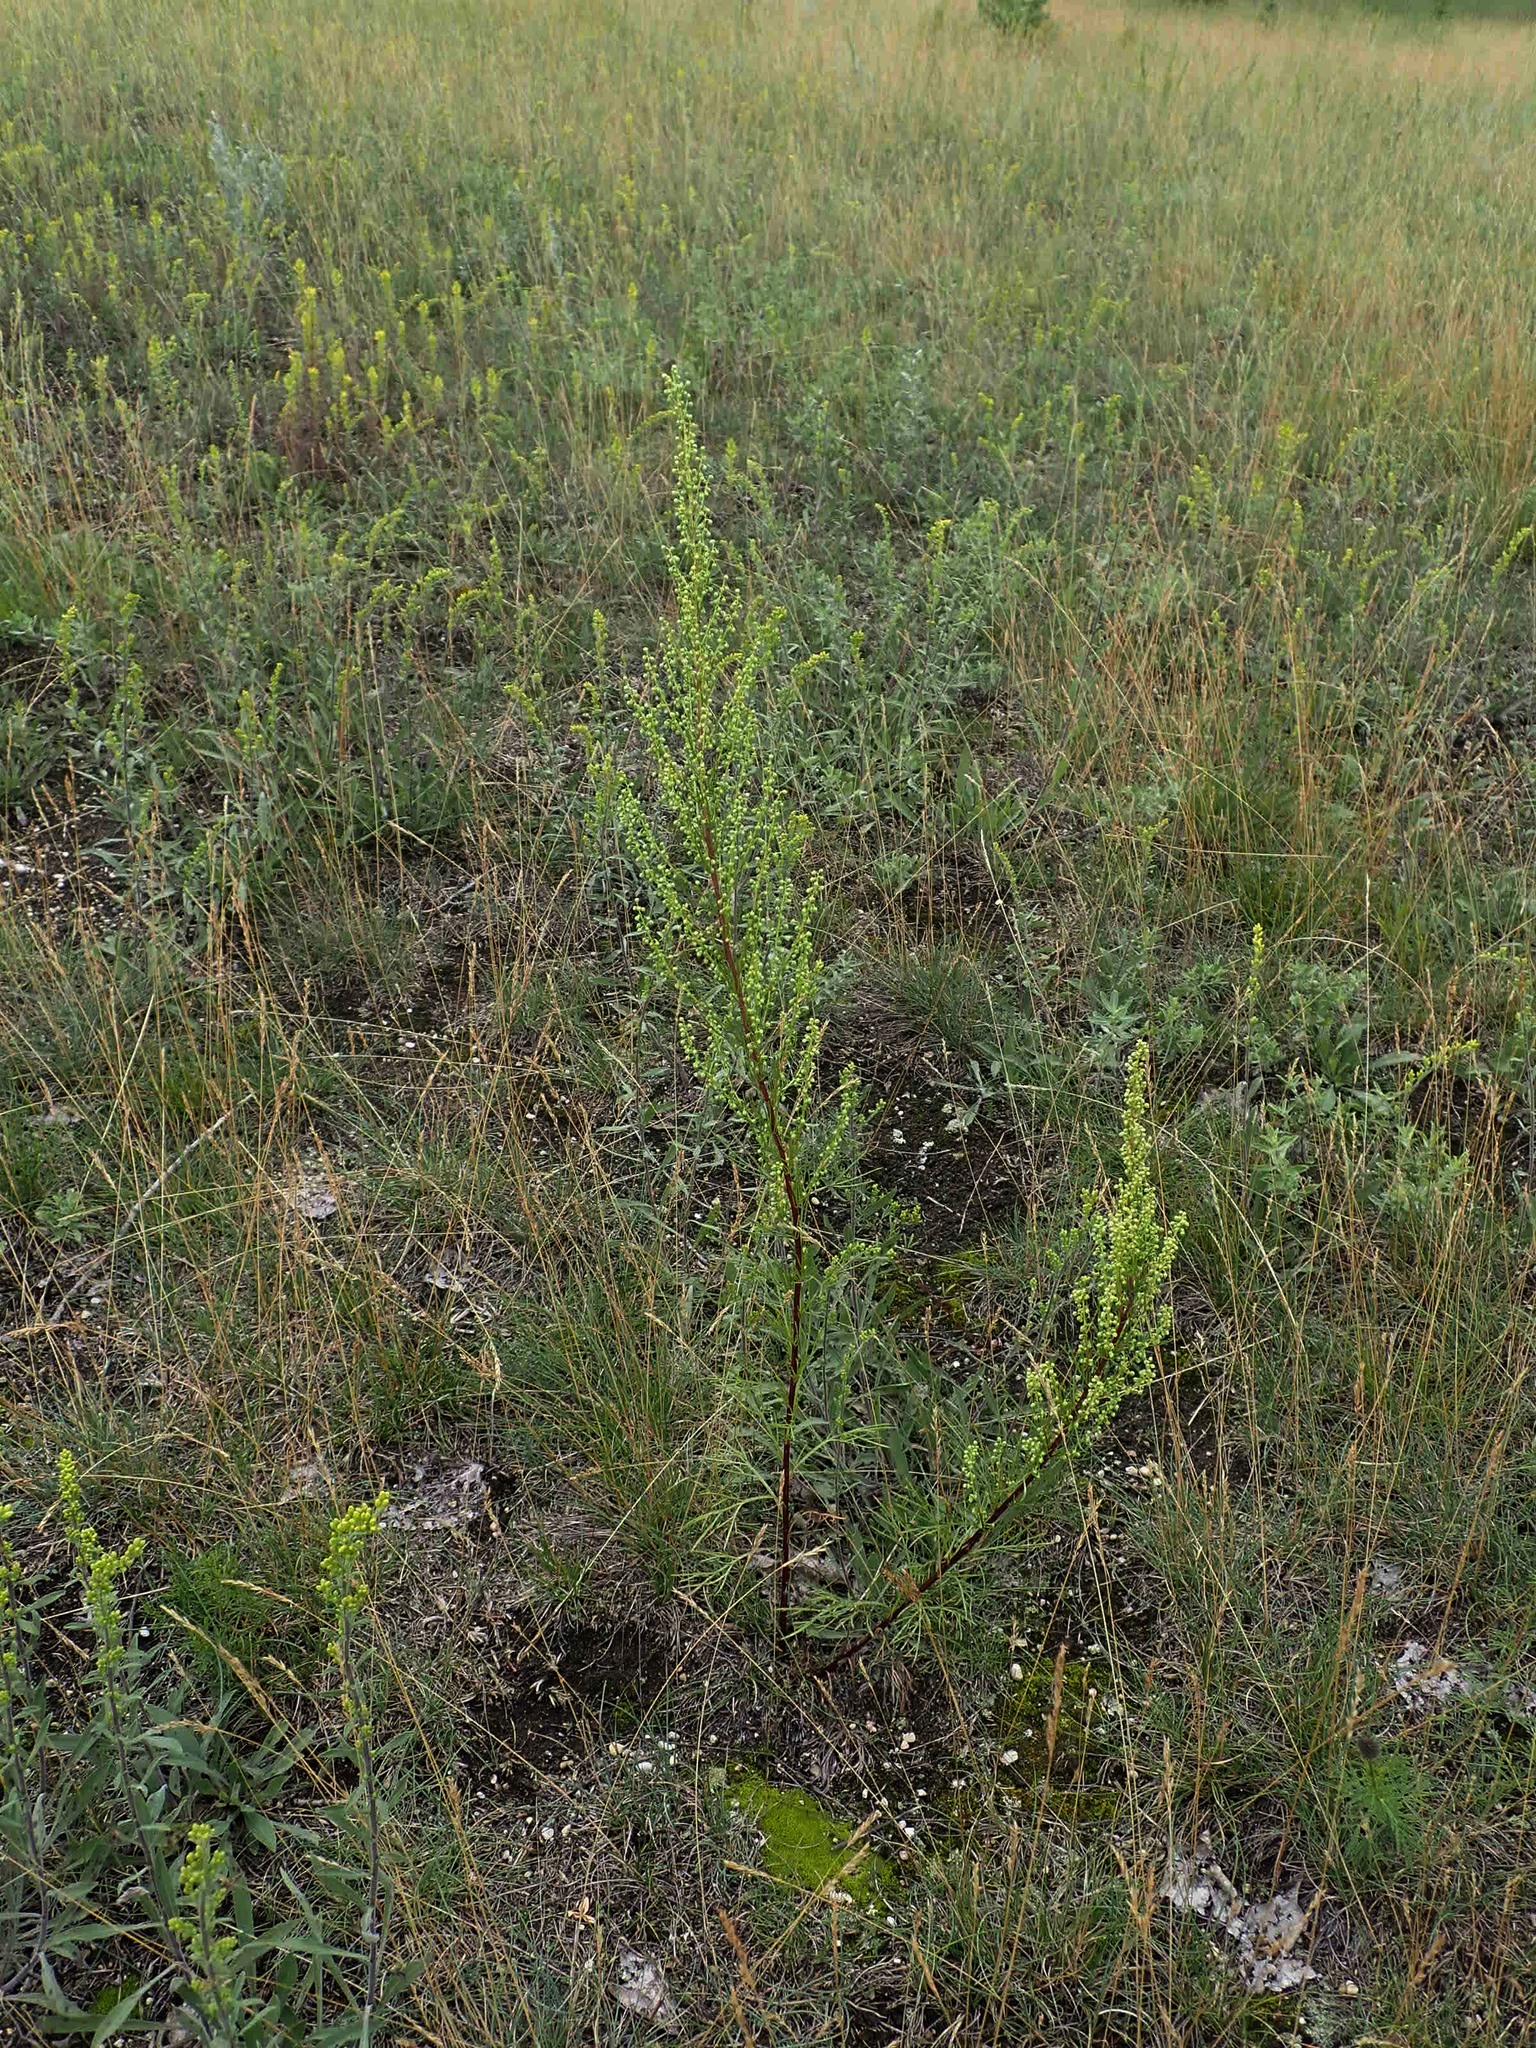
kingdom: Plantae
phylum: Tracheophyta
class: Magnoliopsida
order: Asterales
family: Asteraceae
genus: Artemisia
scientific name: Artemisia campestris
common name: Field wormwood
